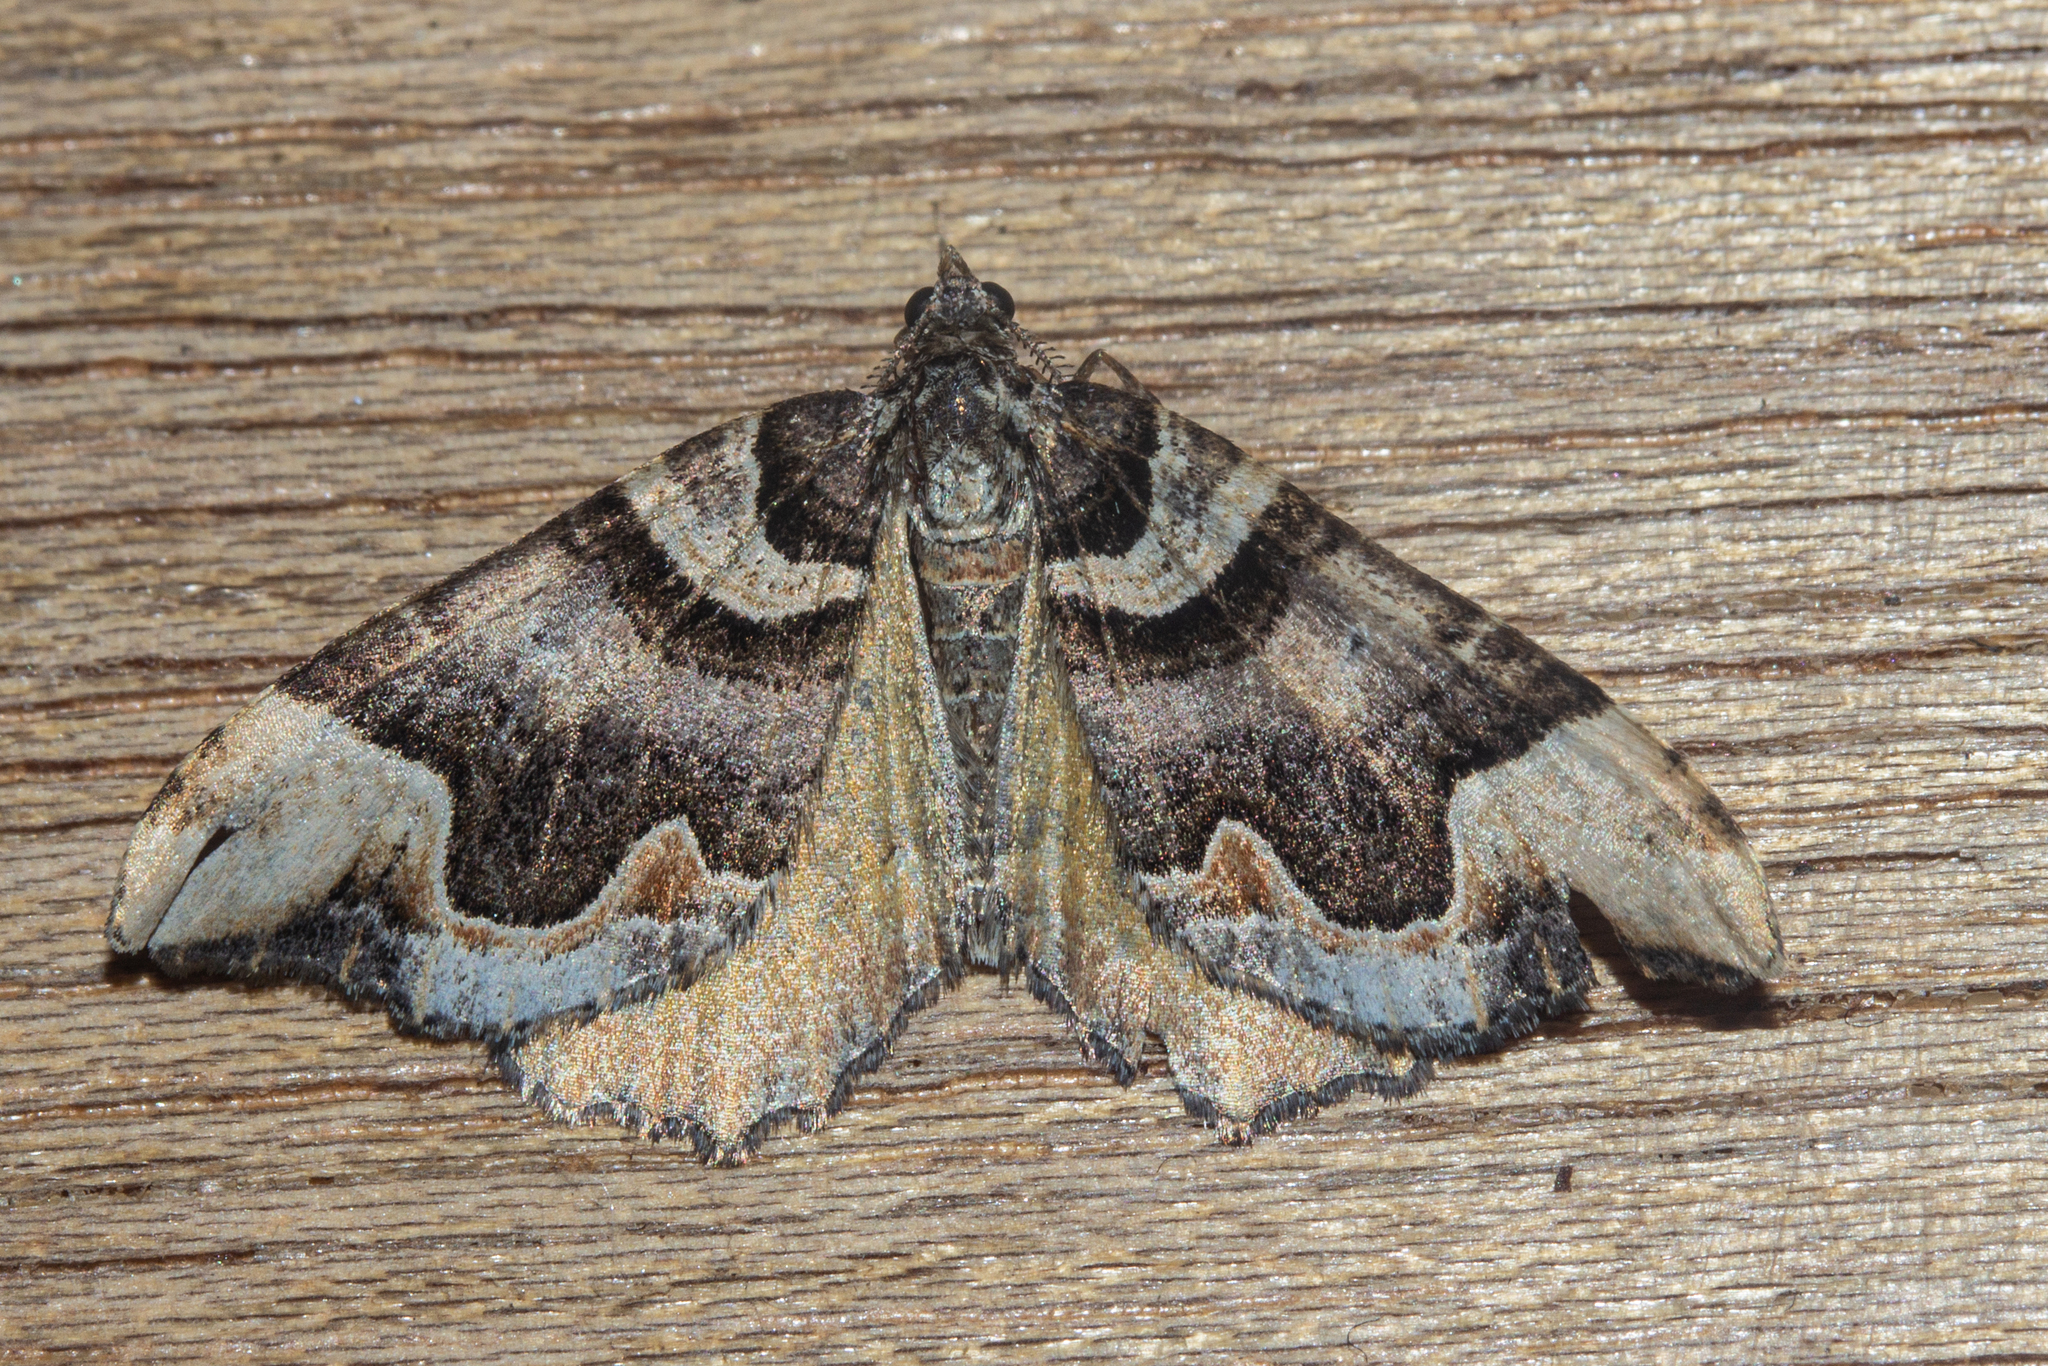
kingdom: Animalia
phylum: Arthropoda
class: Insecta
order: Lepidoptera
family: Geometridae
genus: Asaphodes
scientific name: Asaphodes chlamydota
